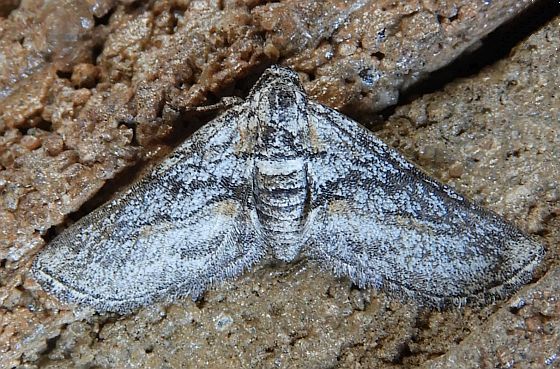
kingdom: Animalia
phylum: Arthropoda
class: Insecta
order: Lepidoptera
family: Geometridae
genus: Eubarnesia
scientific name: Eubarnesia ritaria
